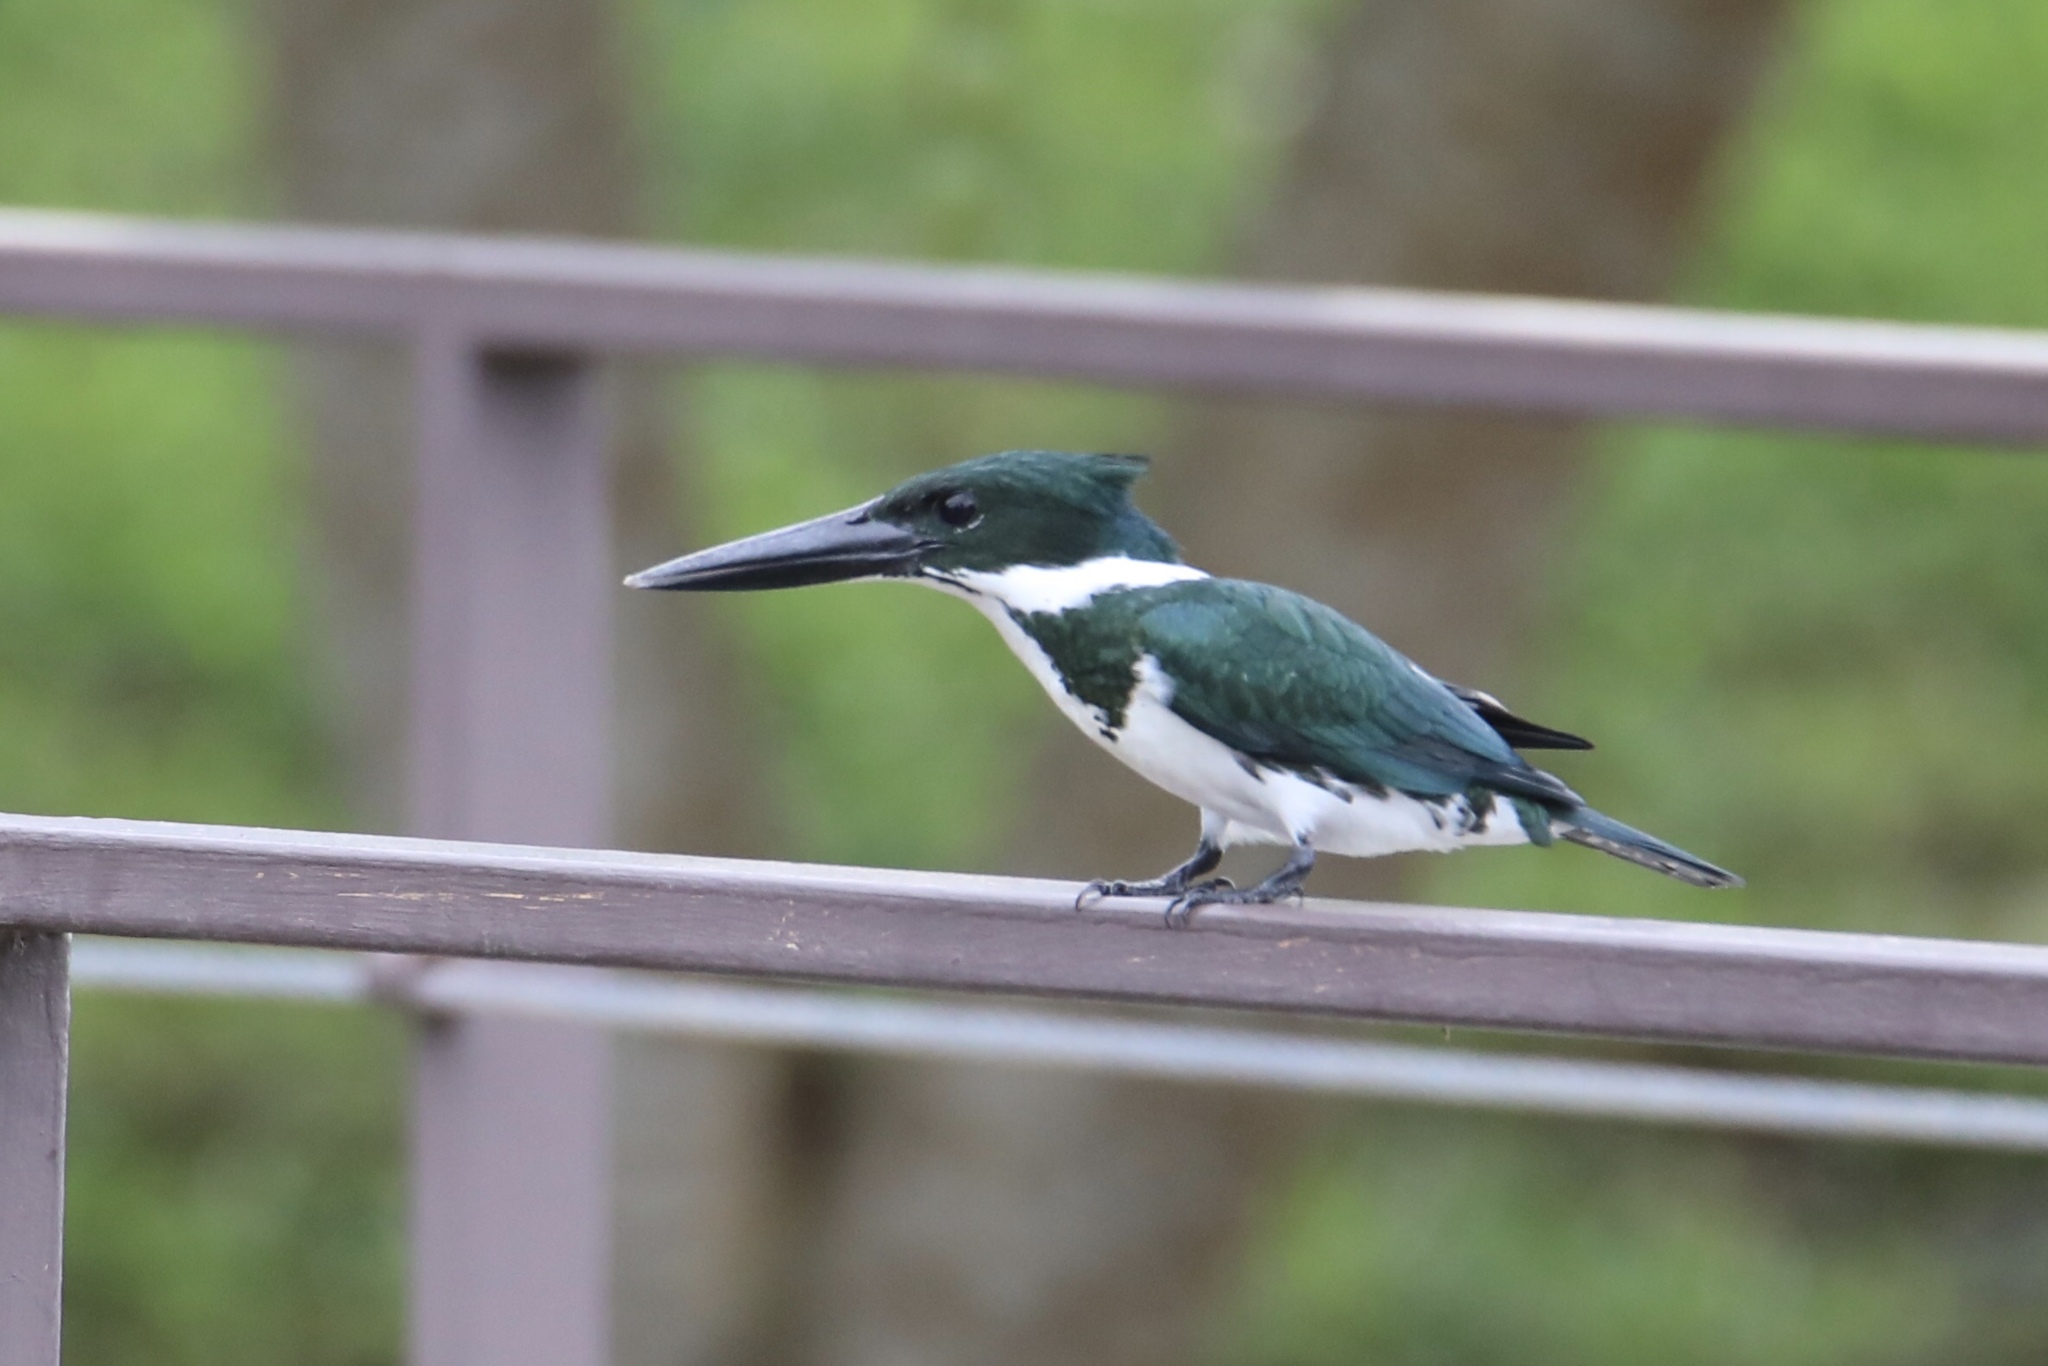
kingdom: Animalia
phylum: Chordata
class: Aves
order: Coraciiformes
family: Alcedinidae
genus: Chloroceryle
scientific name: Chloroceryle amazona
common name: Amazon kingfisher
